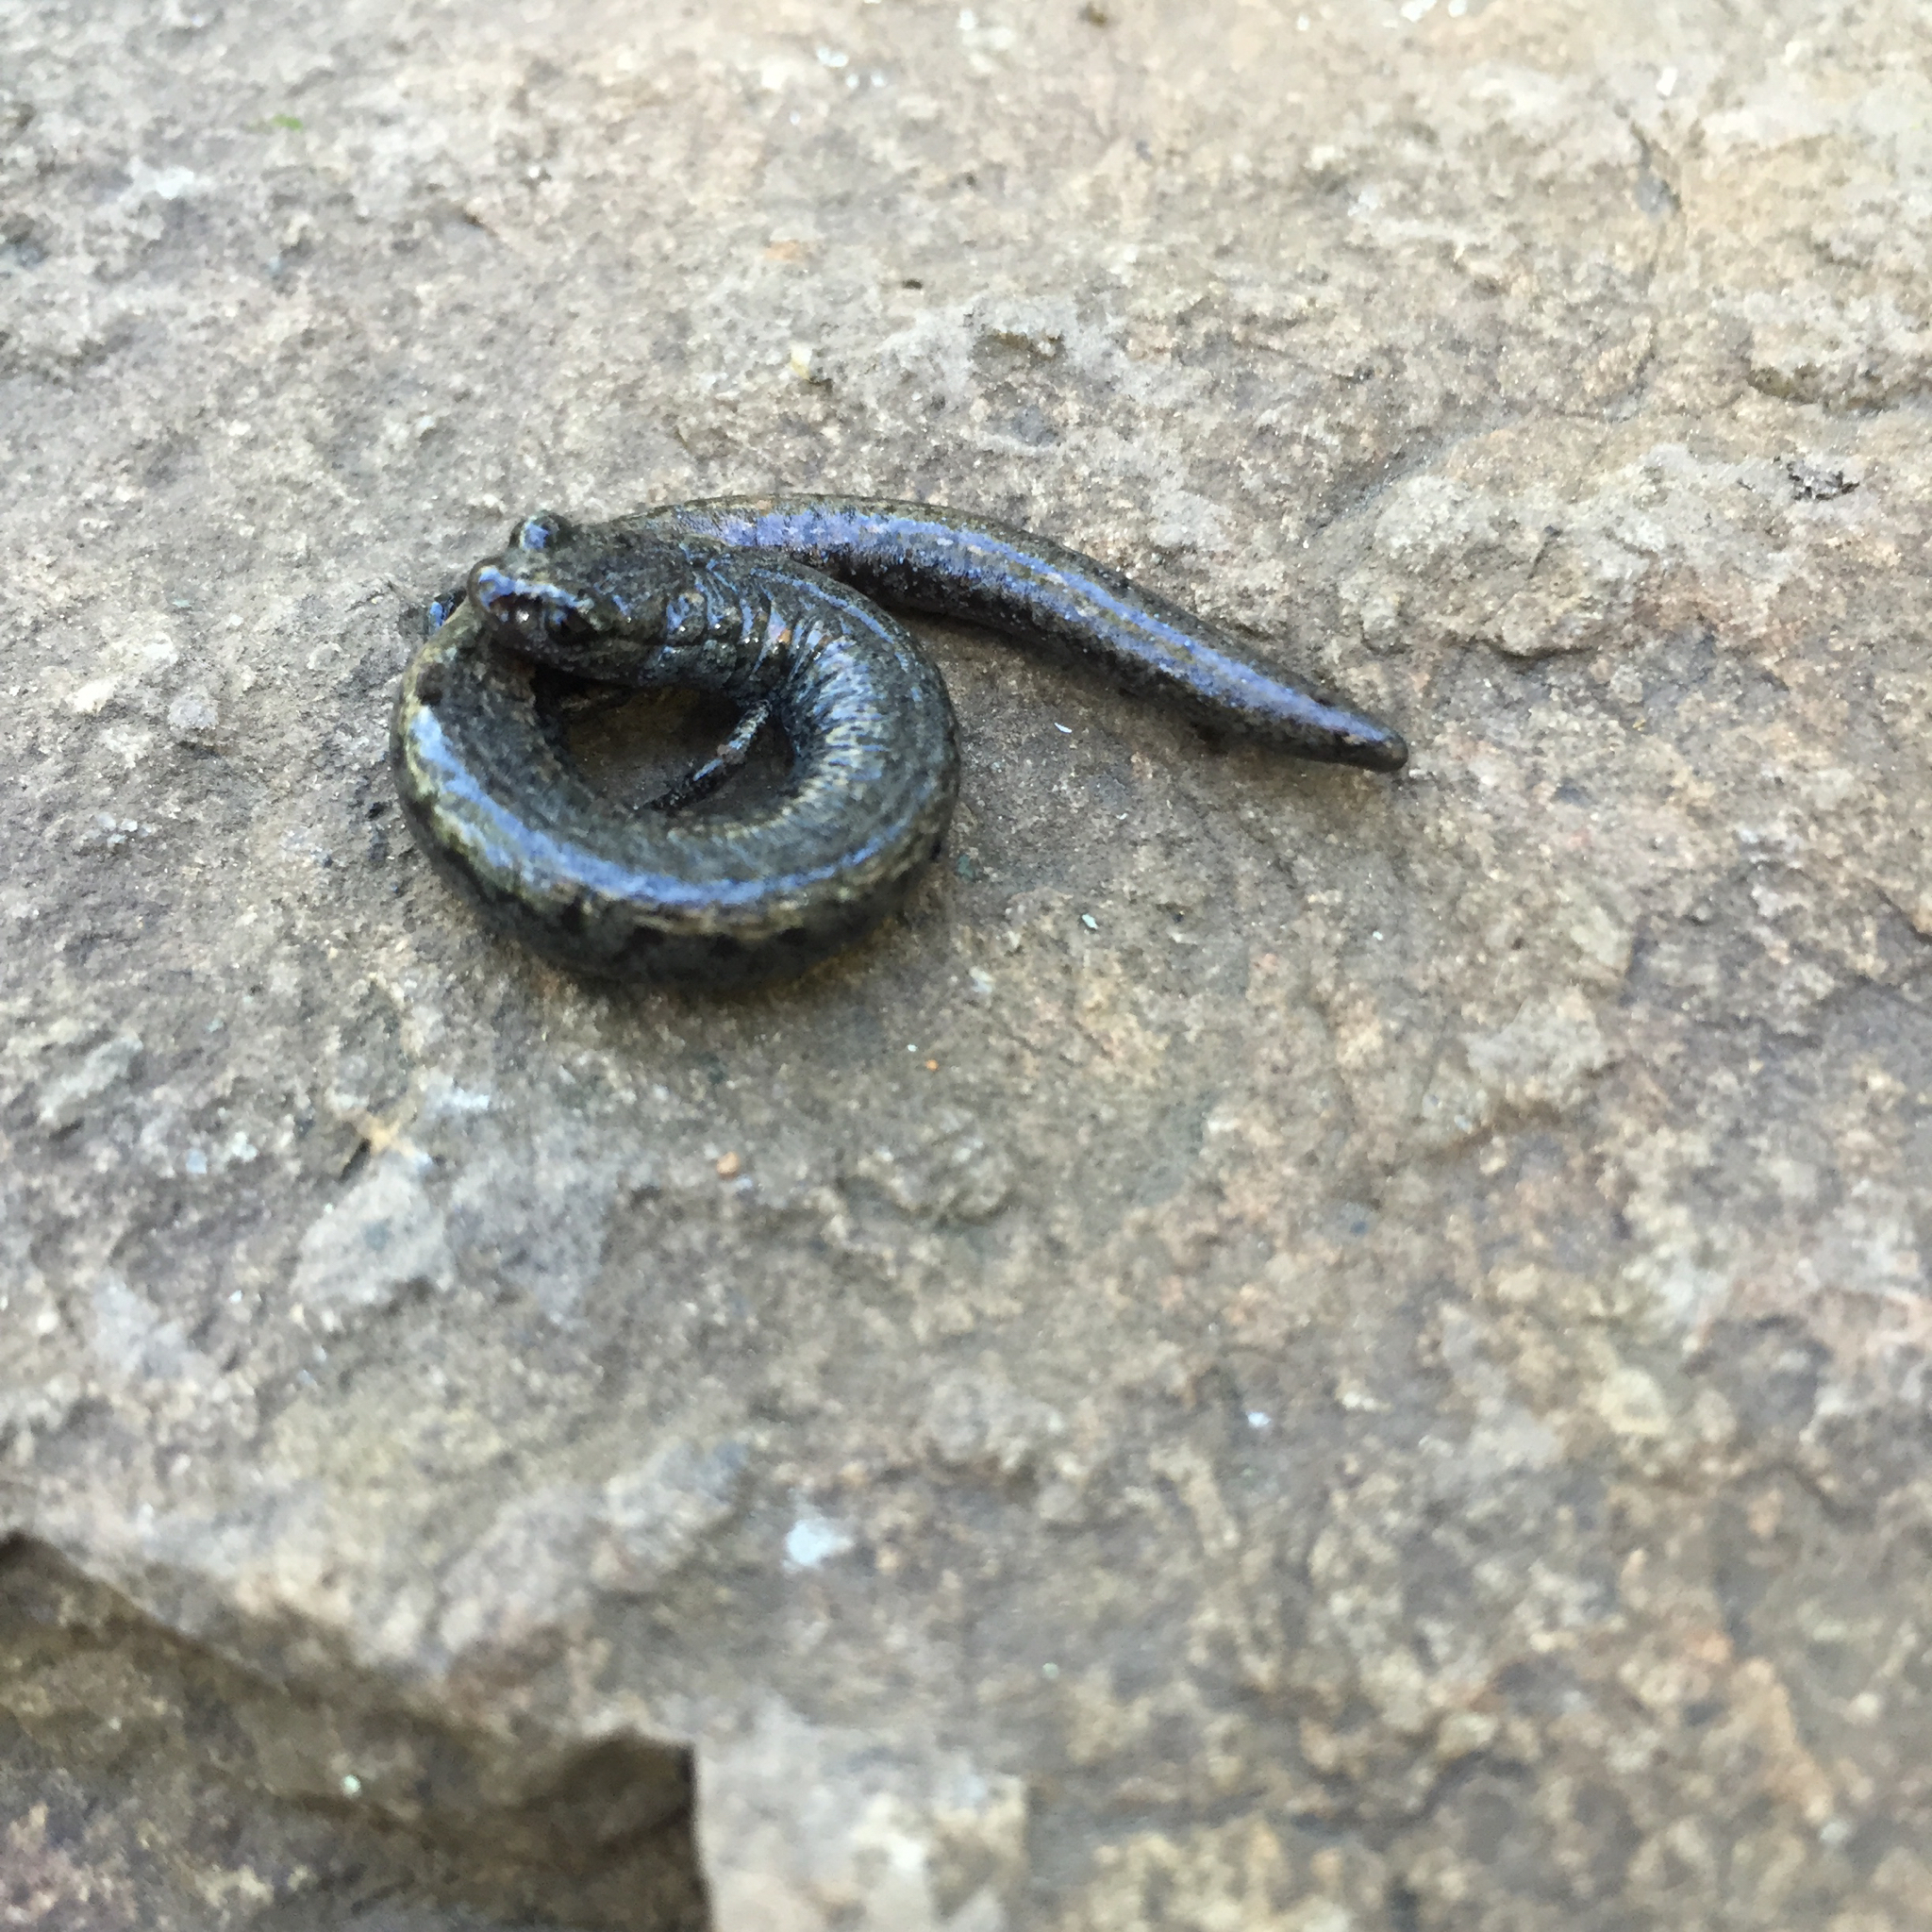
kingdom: Animalia
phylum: Chordata
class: Amphibia
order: Caudata
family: Plethodontidae
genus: Batrachoseps
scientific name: Batrachoseps attenuatus
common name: California slender salamander
